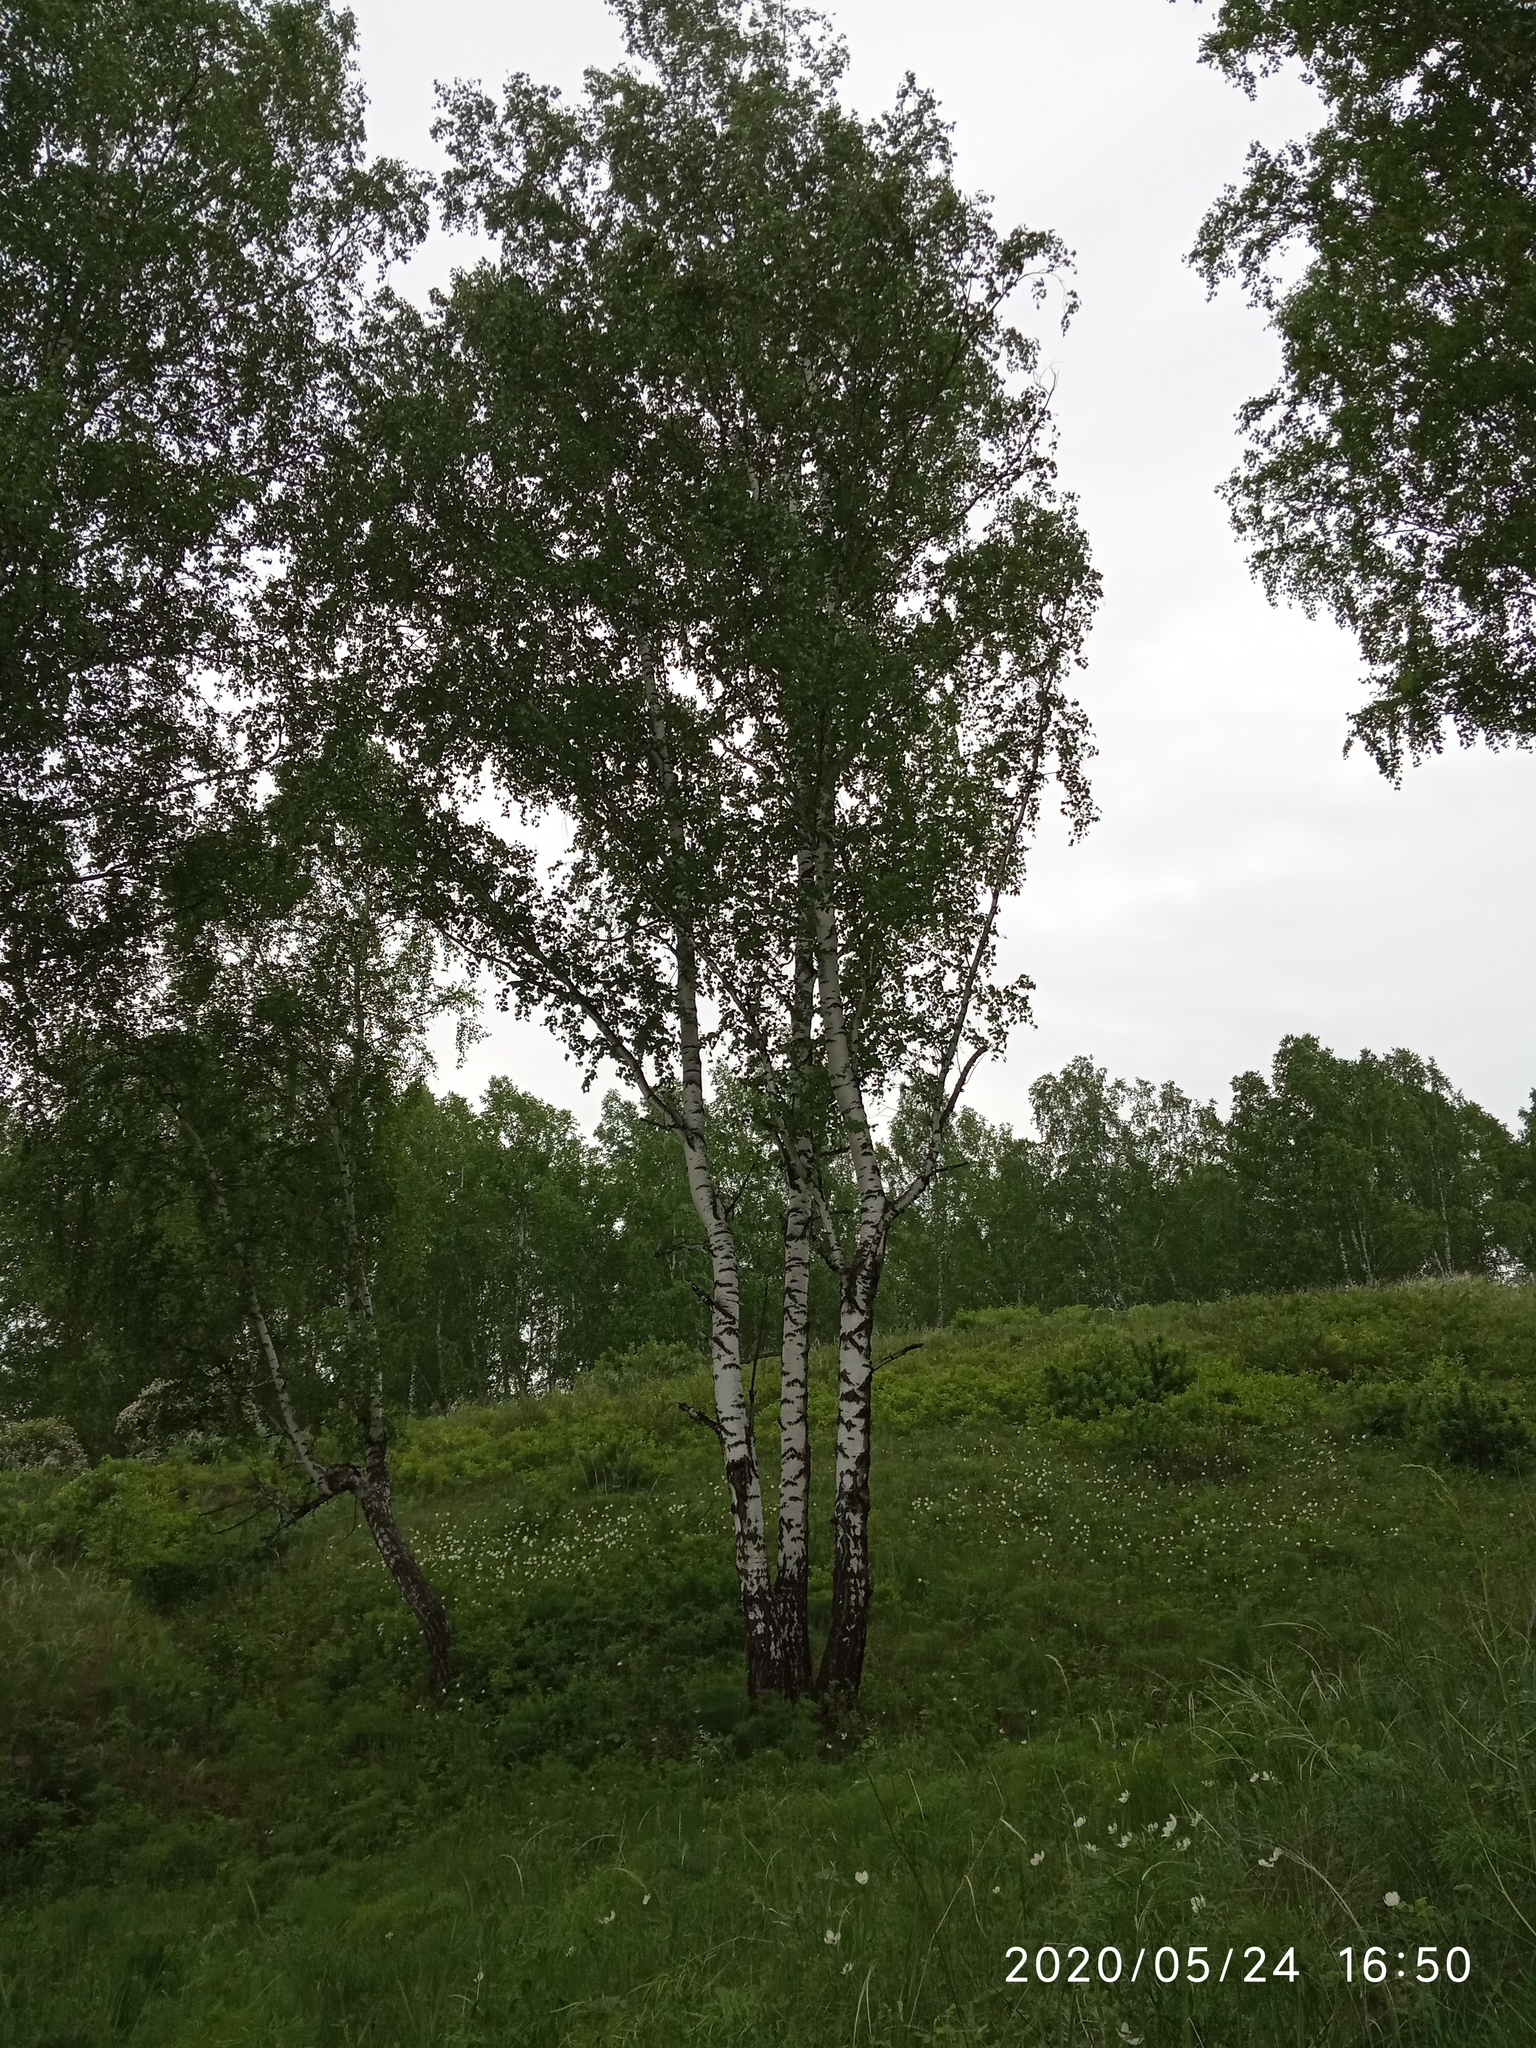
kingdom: Plantae
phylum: Tracheophyta
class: Magnoliopsida
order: Fagales
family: Betulaceae
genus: Betula
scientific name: Betula pendula
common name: Silver birch
